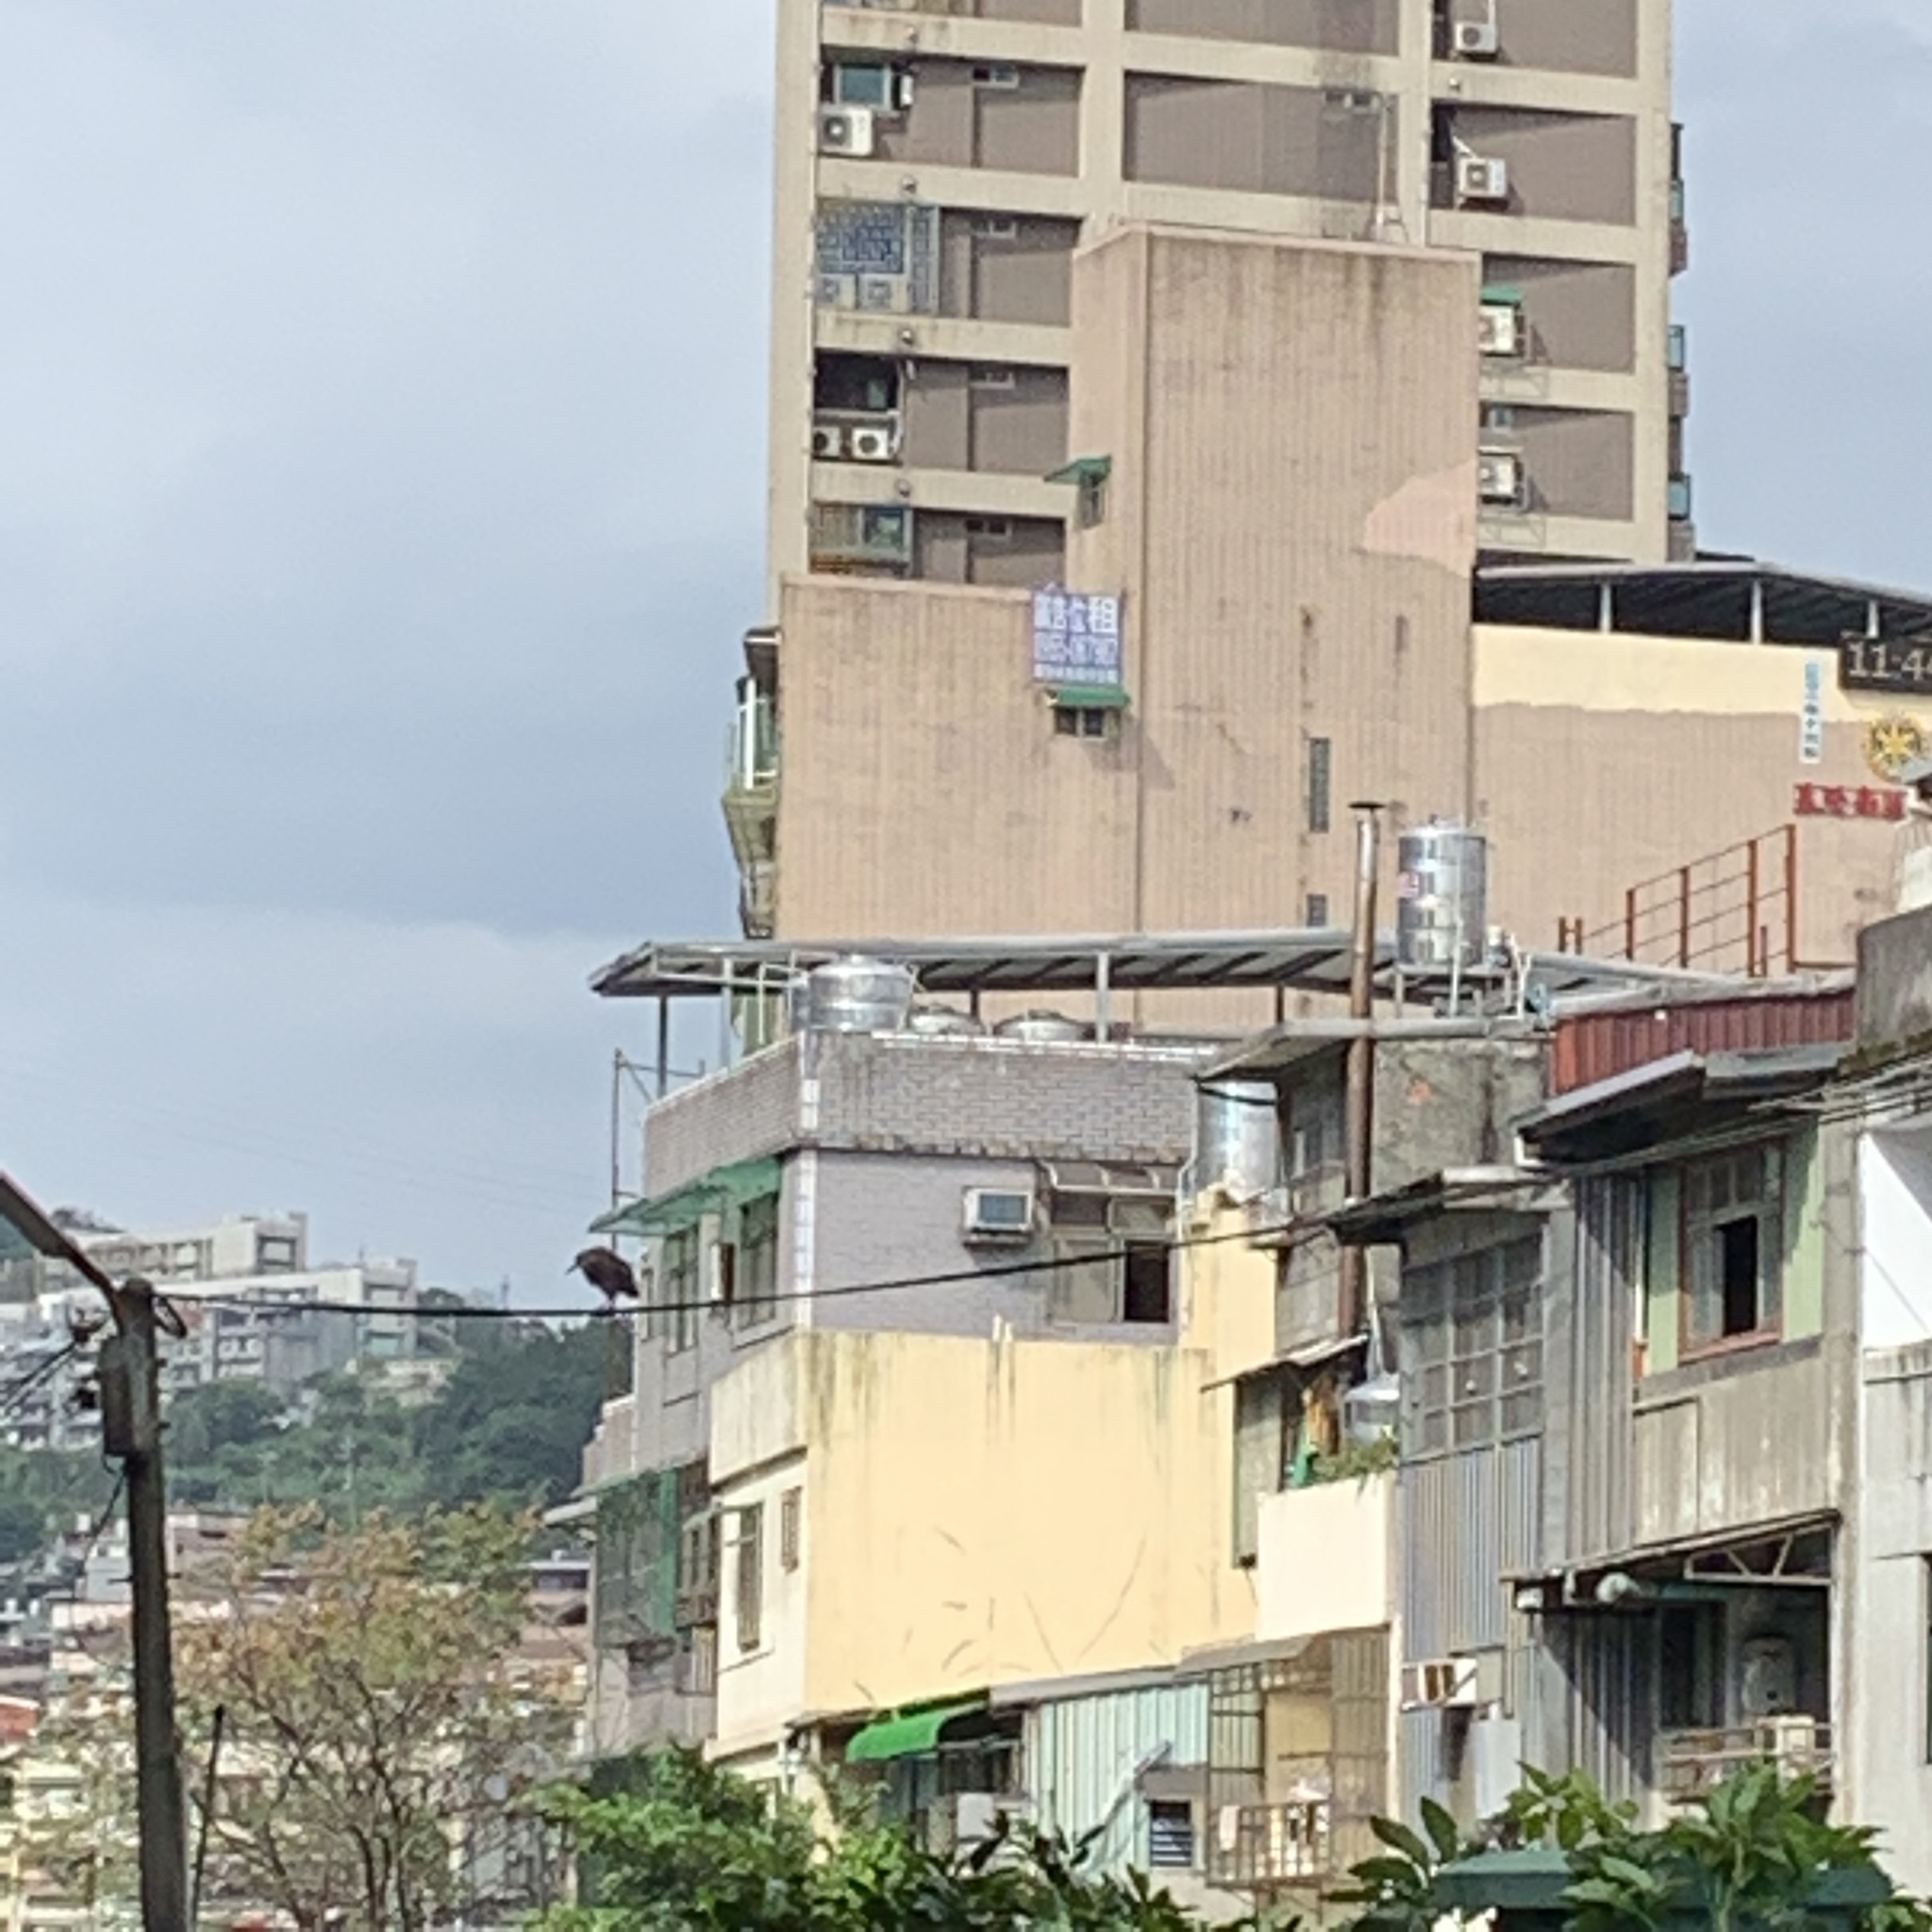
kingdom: Animalia
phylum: Chordata
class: Aves
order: Pelecaniformes
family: Ardeidae
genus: Nycticorax
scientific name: Nycticorax nycticorax
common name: Black-crowned night heron
